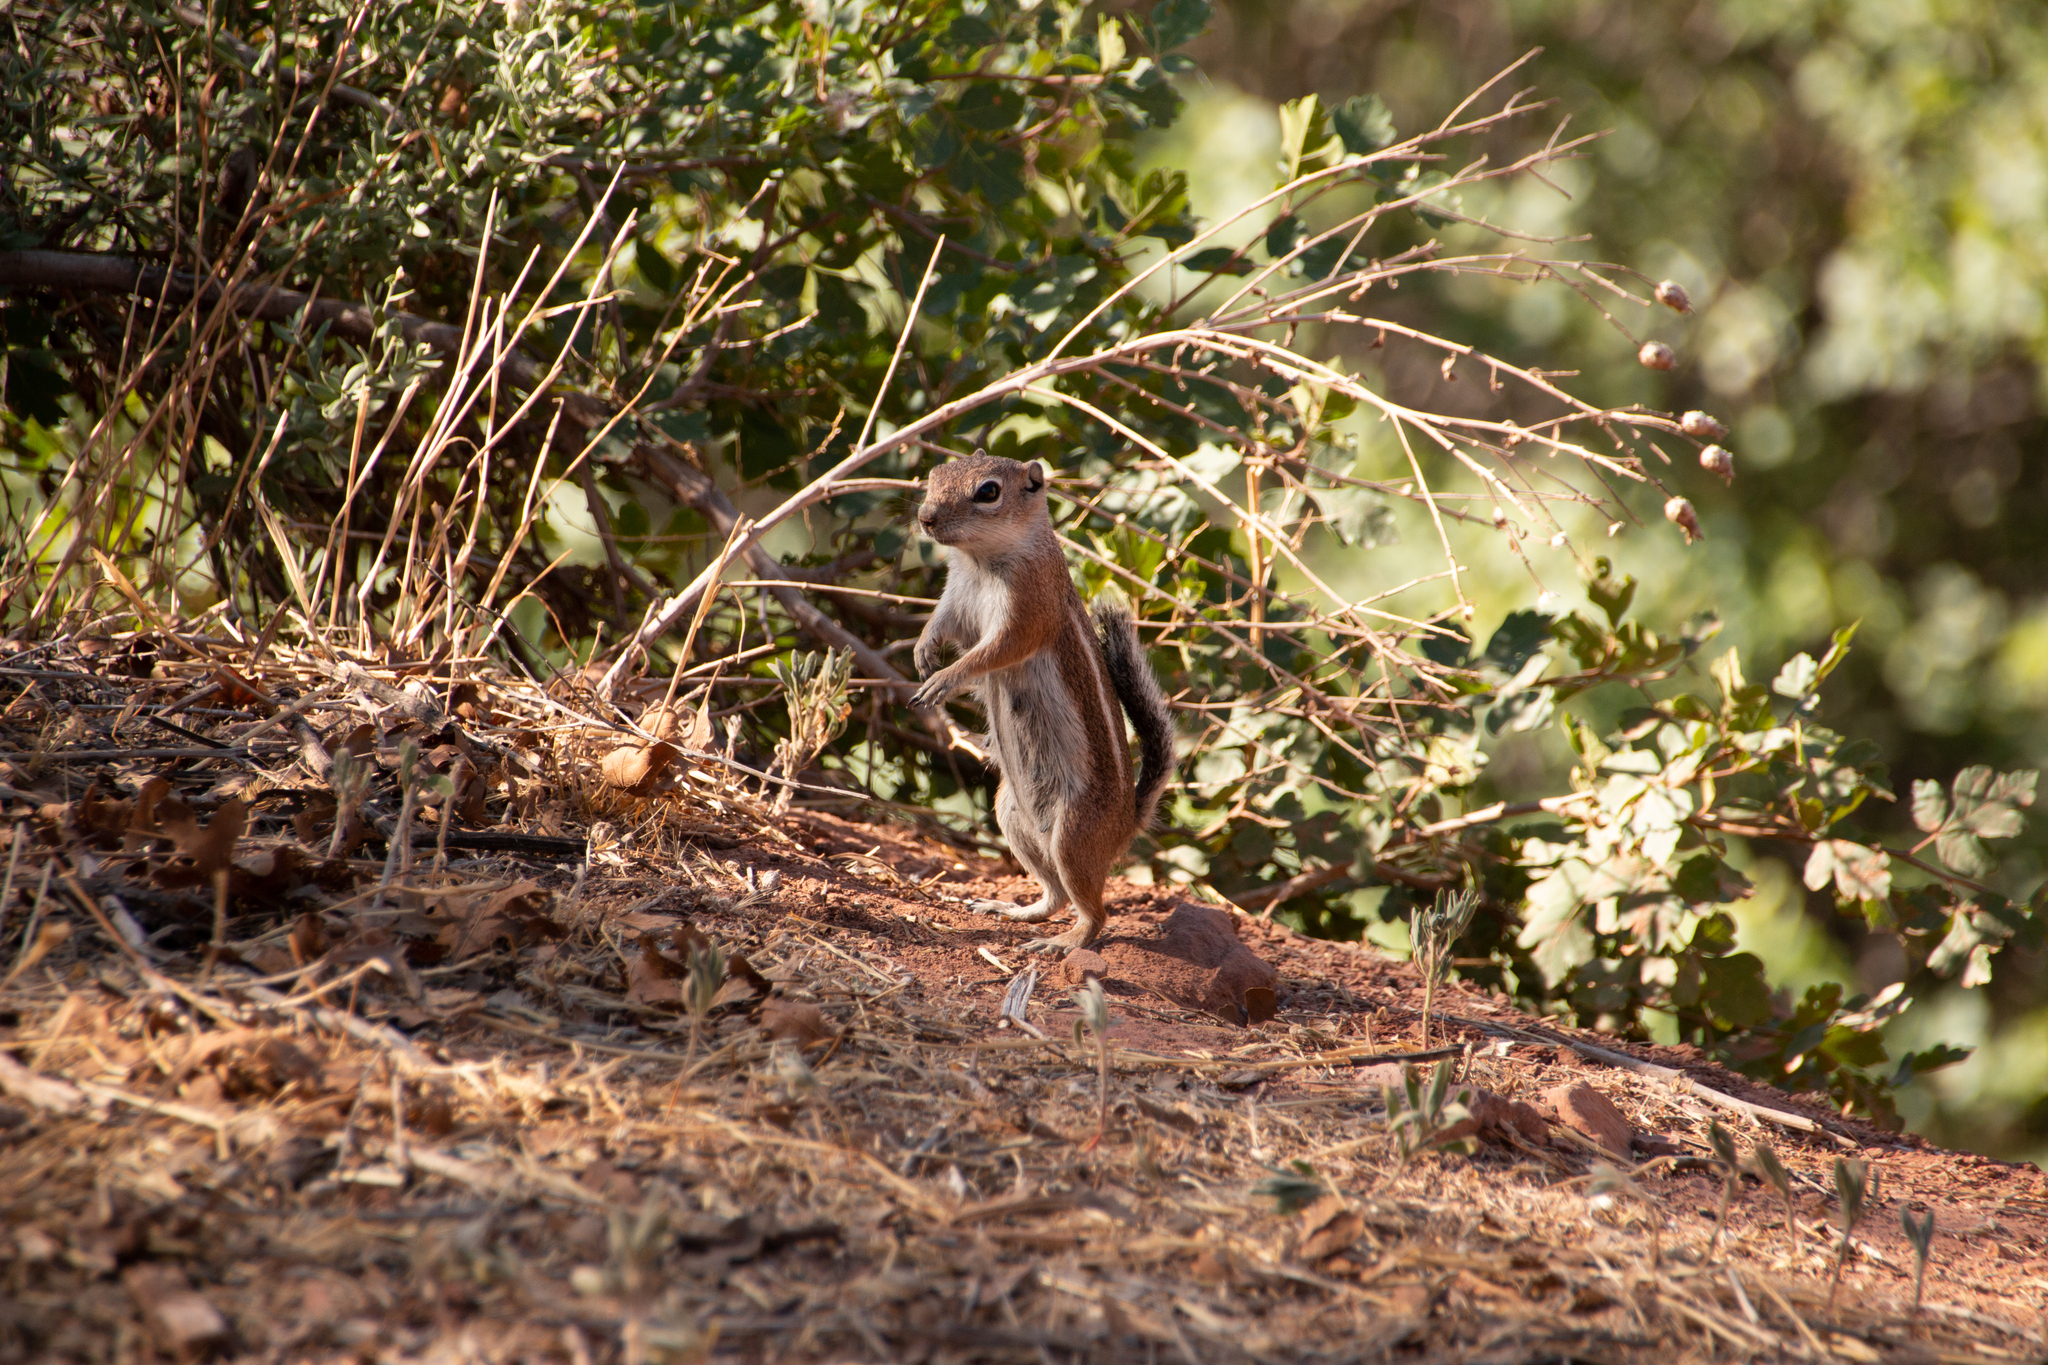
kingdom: Animalia
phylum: Chordata
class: Mammalia
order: Rodentia
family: Sciuridae
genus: Ammospermophilus
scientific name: Ammospermophilus leucurus
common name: White-tailed antelope squirrel
